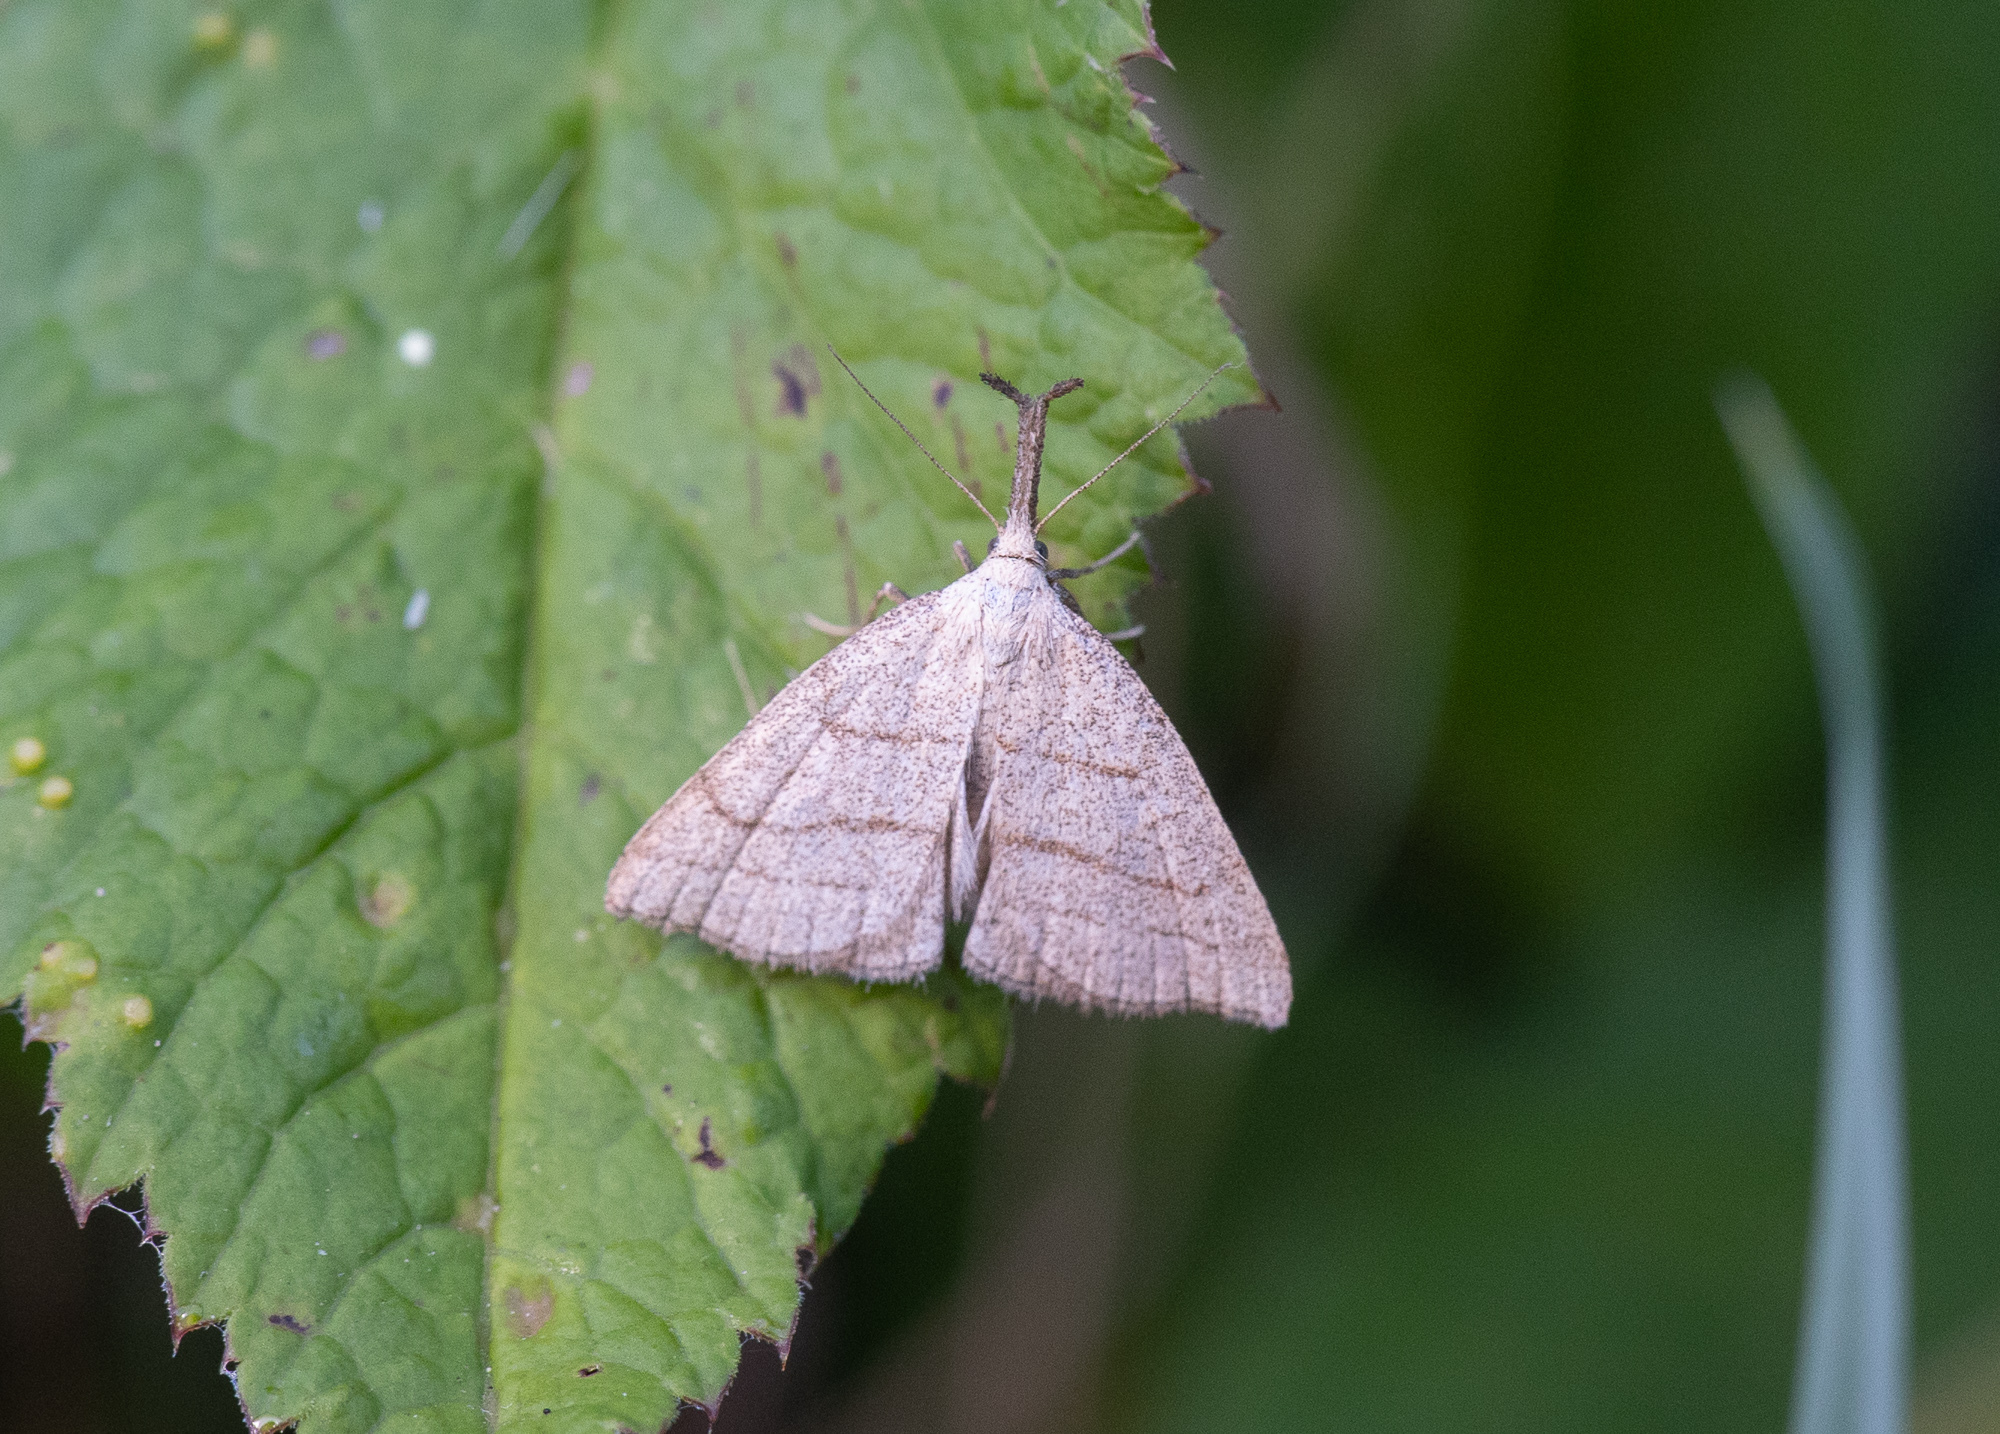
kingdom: Animalia
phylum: Arthropoda
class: Insecta
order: Lepidoptera
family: Erebidae
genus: Polypogon
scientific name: Polypogon tentacularia
